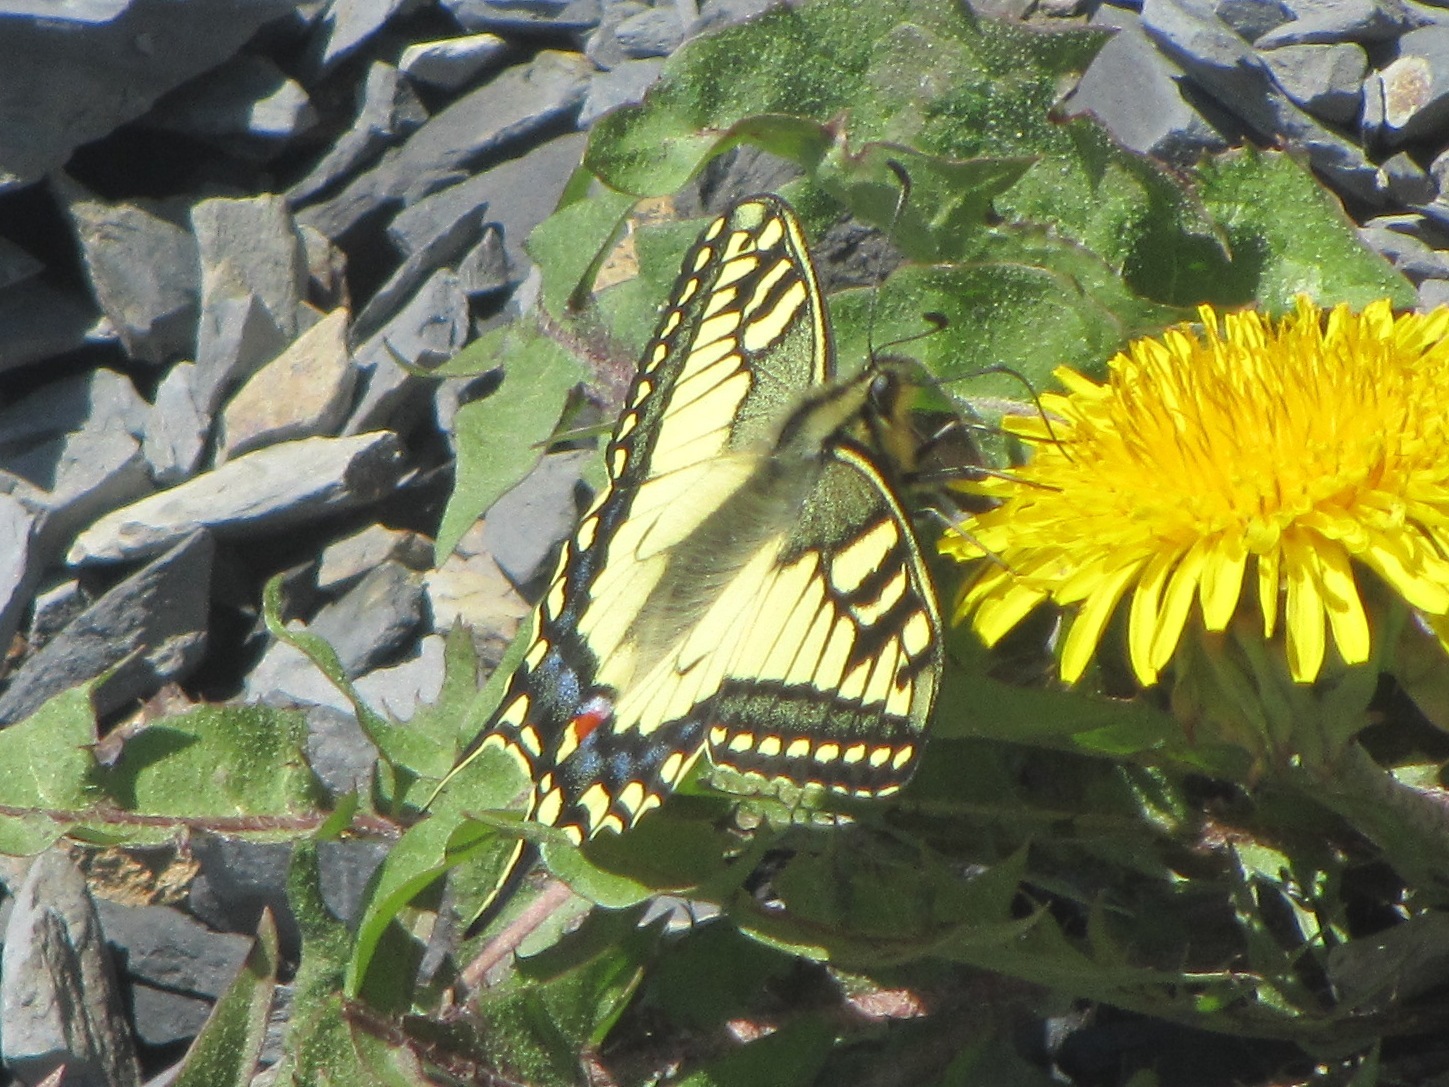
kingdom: Animalia
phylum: Arthropoda
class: Insecta
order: Lepidoptera
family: Papilionidae
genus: Papilio
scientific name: Papilio machaon
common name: Swallowtail
